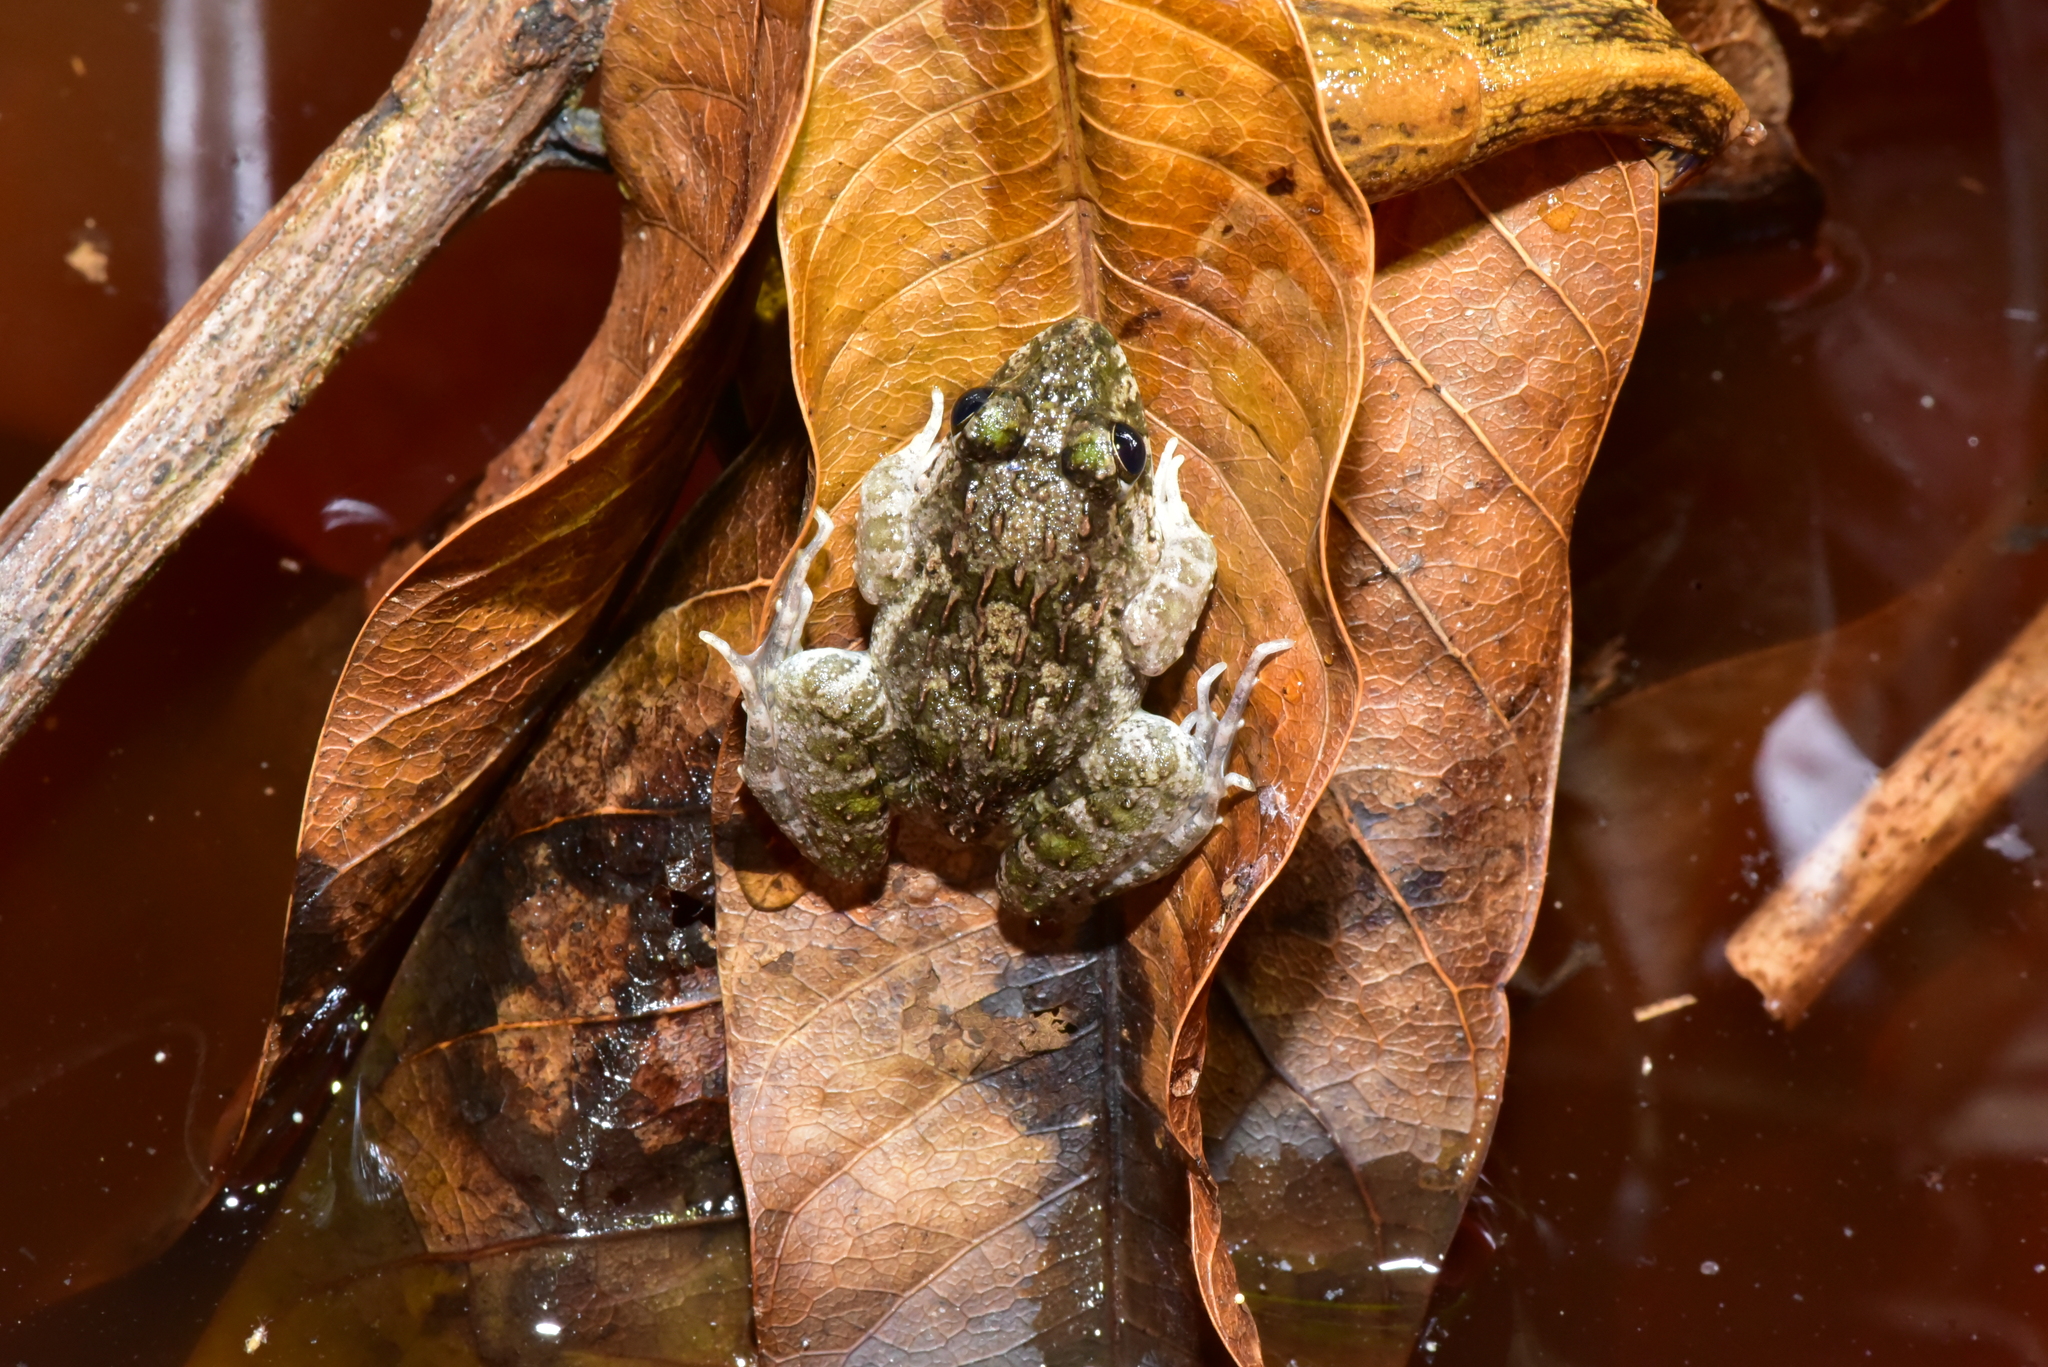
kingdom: Animalia
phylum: Chordata
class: Amphibia
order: Anura
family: Dicroglossidae
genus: Fejervarya
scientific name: Fejervarya limnocharis
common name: Asian grass frog/common pond frog/field frog/grass frog/indian rice frog
